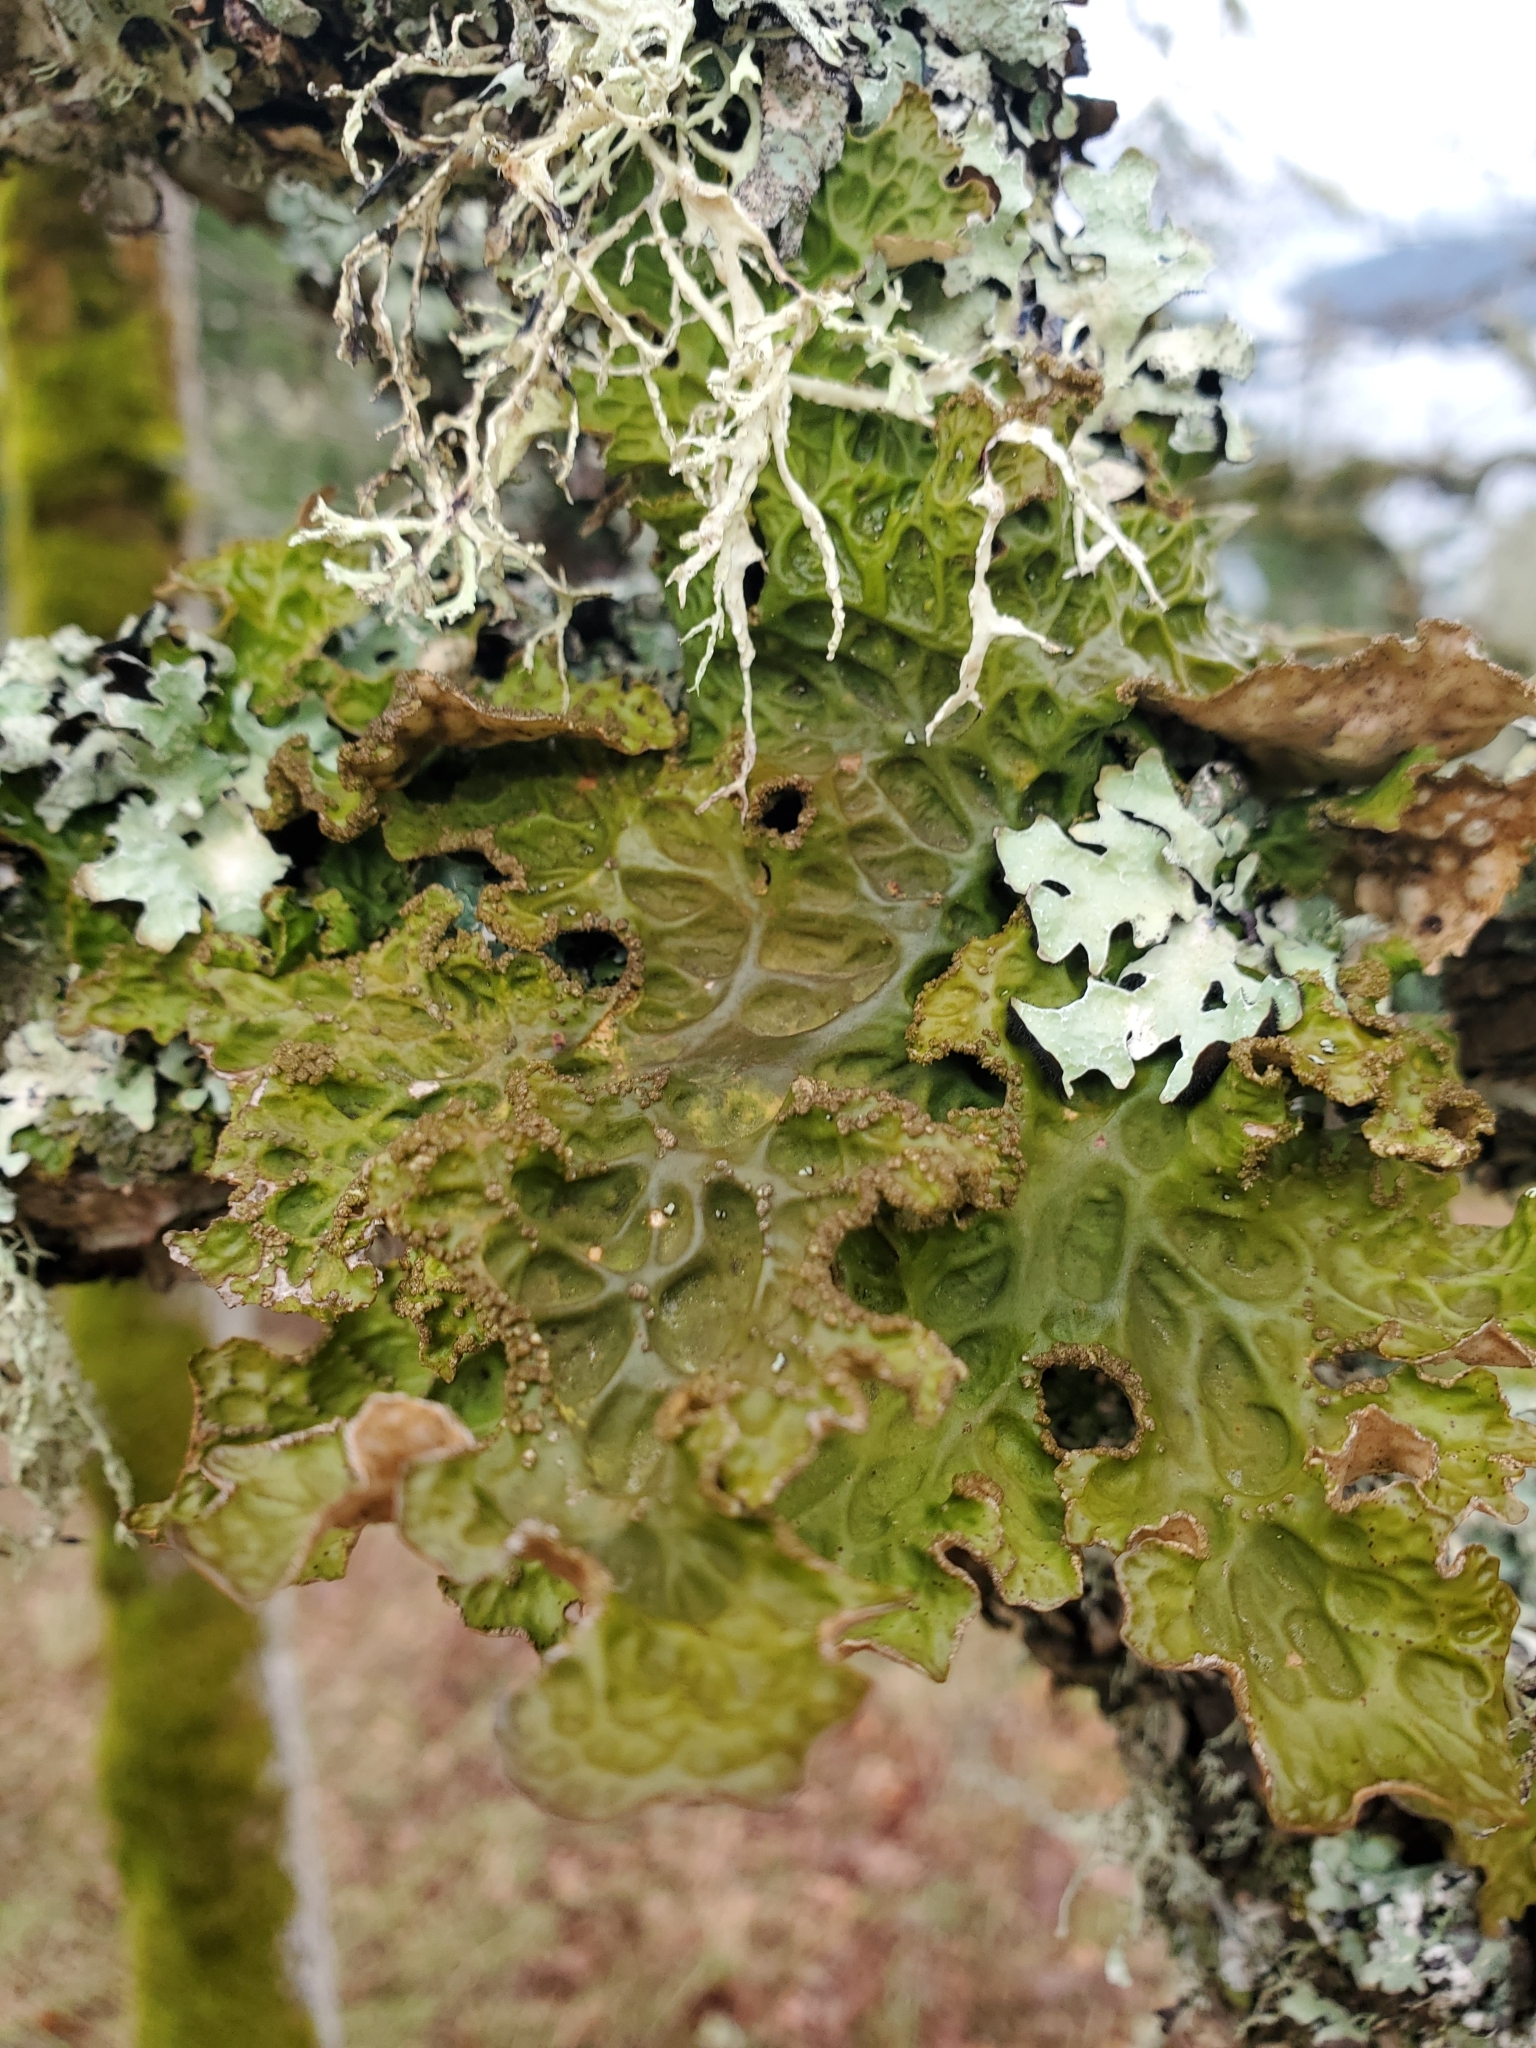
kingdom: Fungi
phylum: Ascomycota
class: Lecanoromycetes
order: Peltigerales
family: Lobariaceae
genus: Lobaria
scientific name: Lobaria pulmonaria
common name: Lungwort
